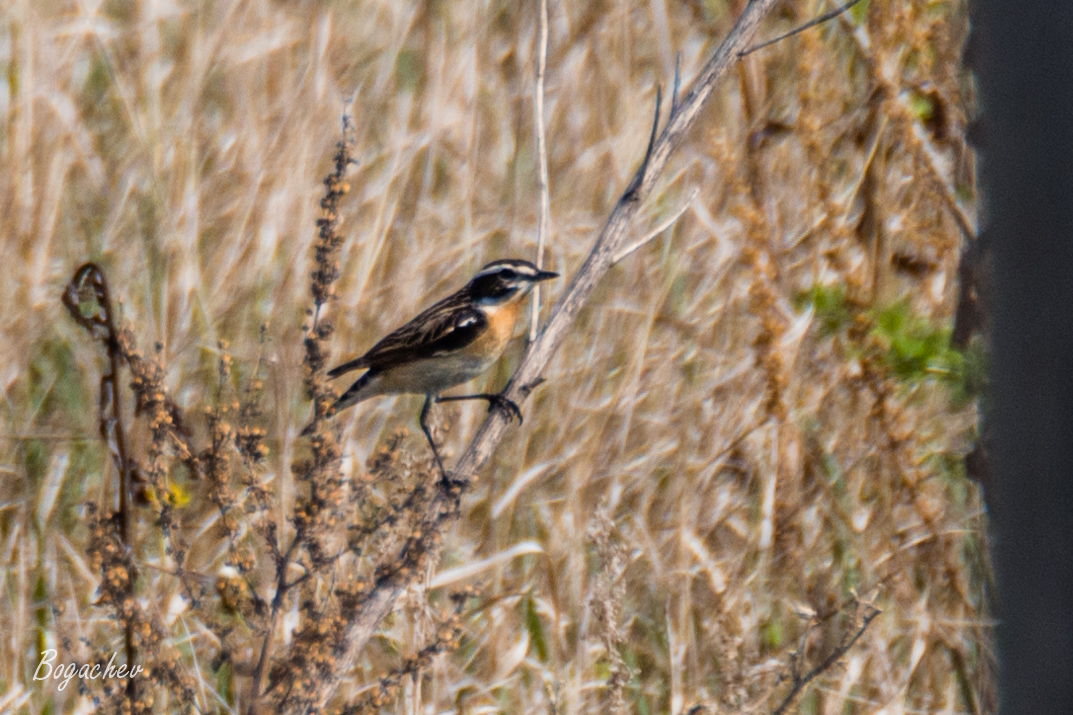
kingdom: Animalia
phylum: Chordata
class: Aves
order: Passeriformes
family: Muscicapidae
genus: Saxicola
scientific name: Saxicola rubetra
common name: Whinchat
